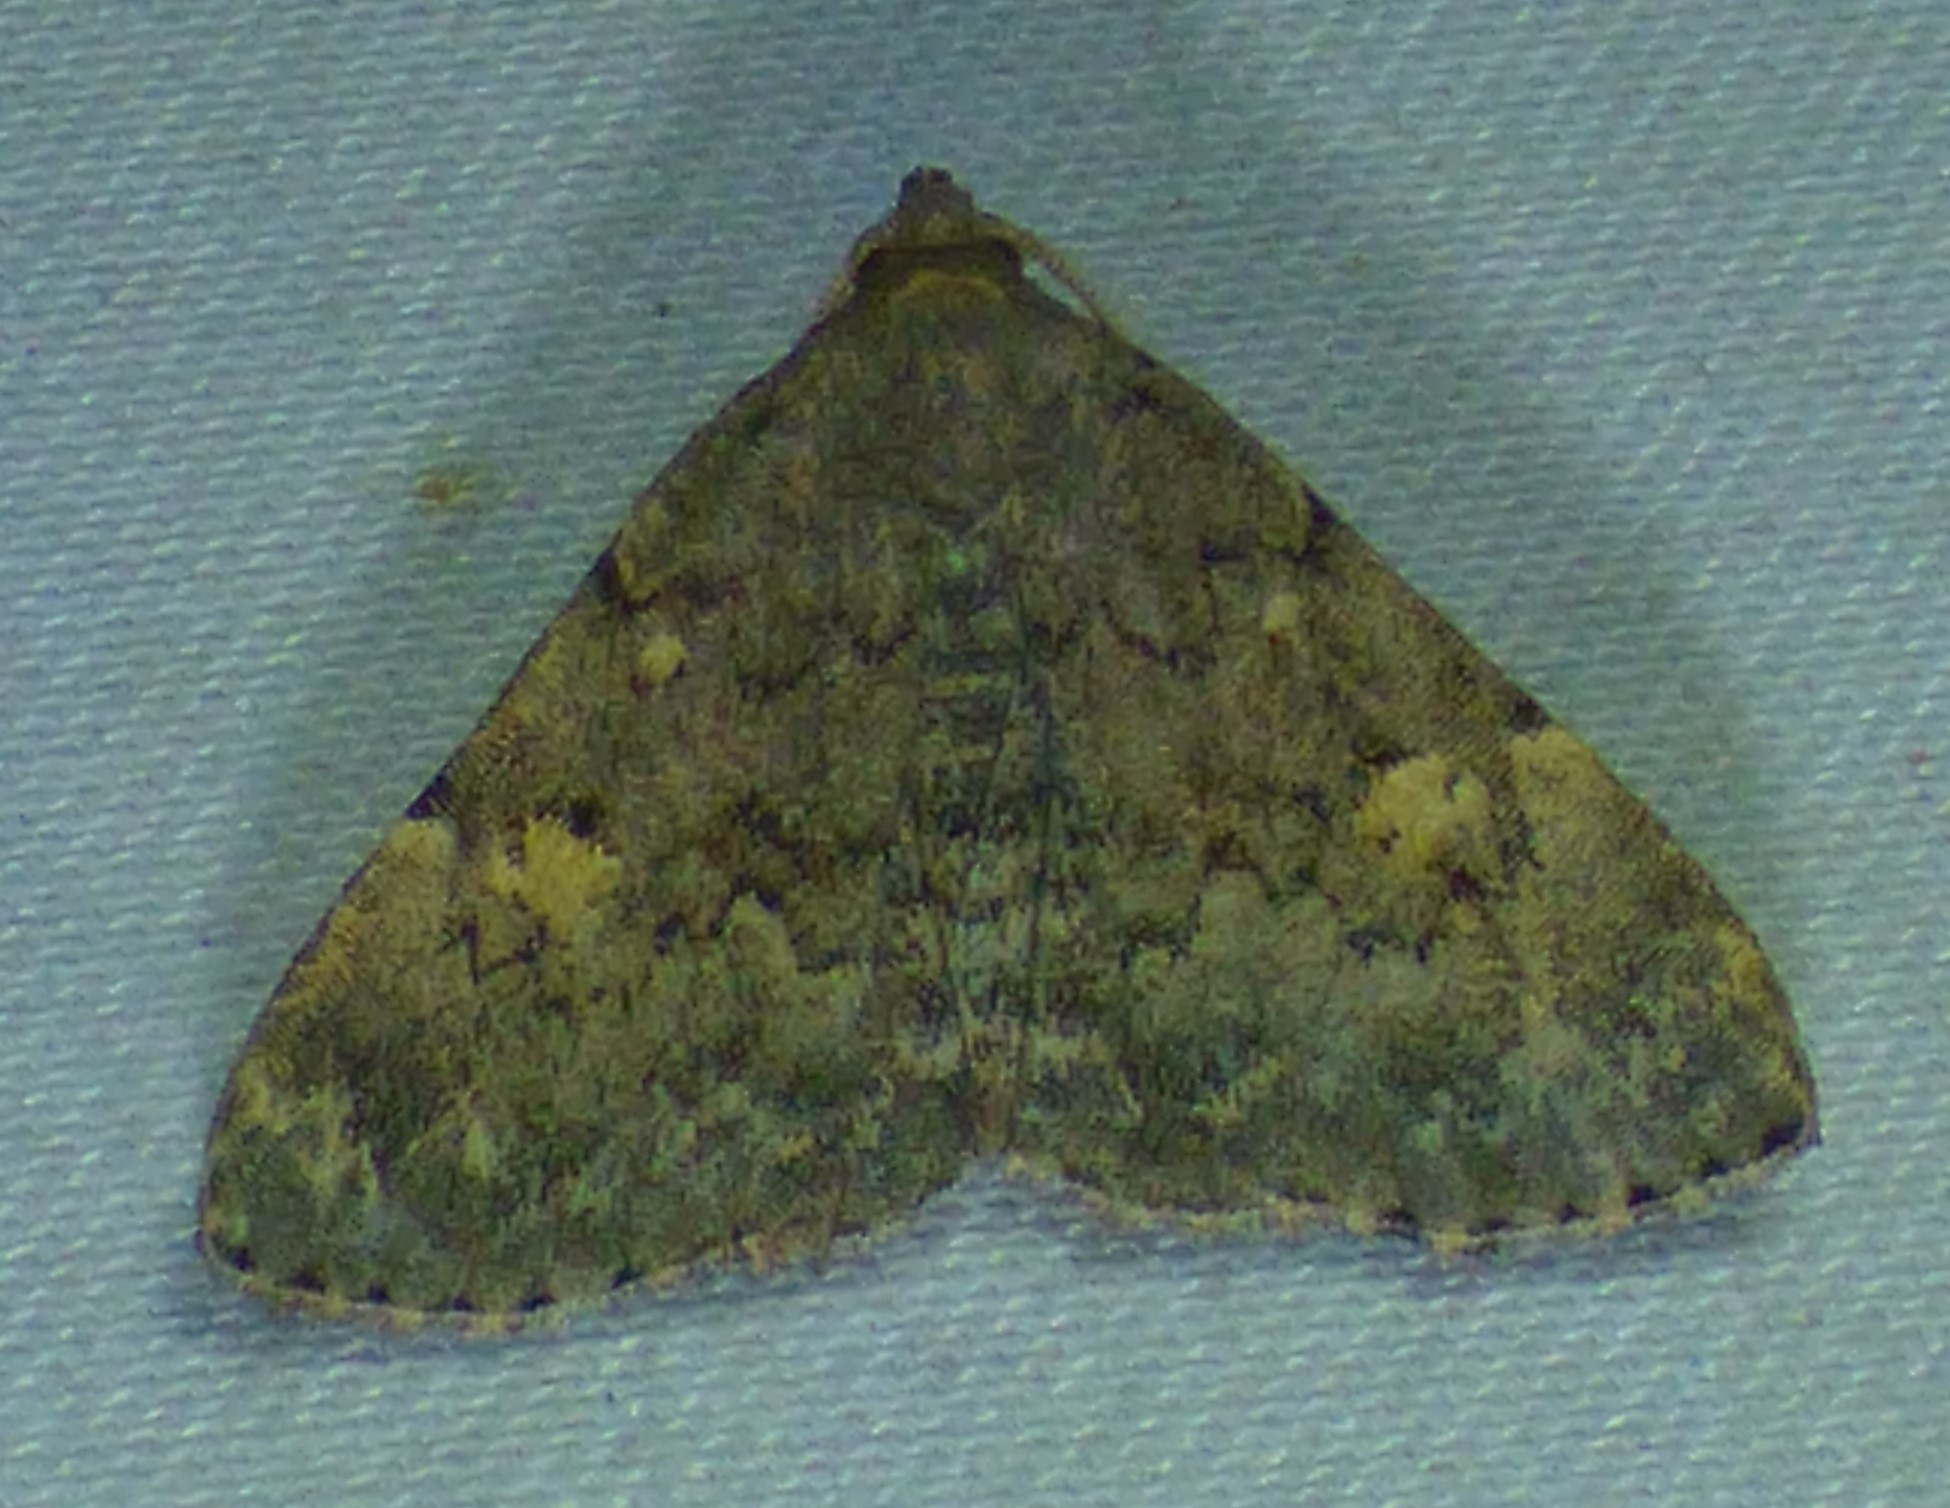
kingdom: Animalia
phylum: Arthropoda
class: Insecta
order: Lepidoptera
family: Erebidae
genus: Idia
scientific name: Idia aemula
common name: Common idia moth
